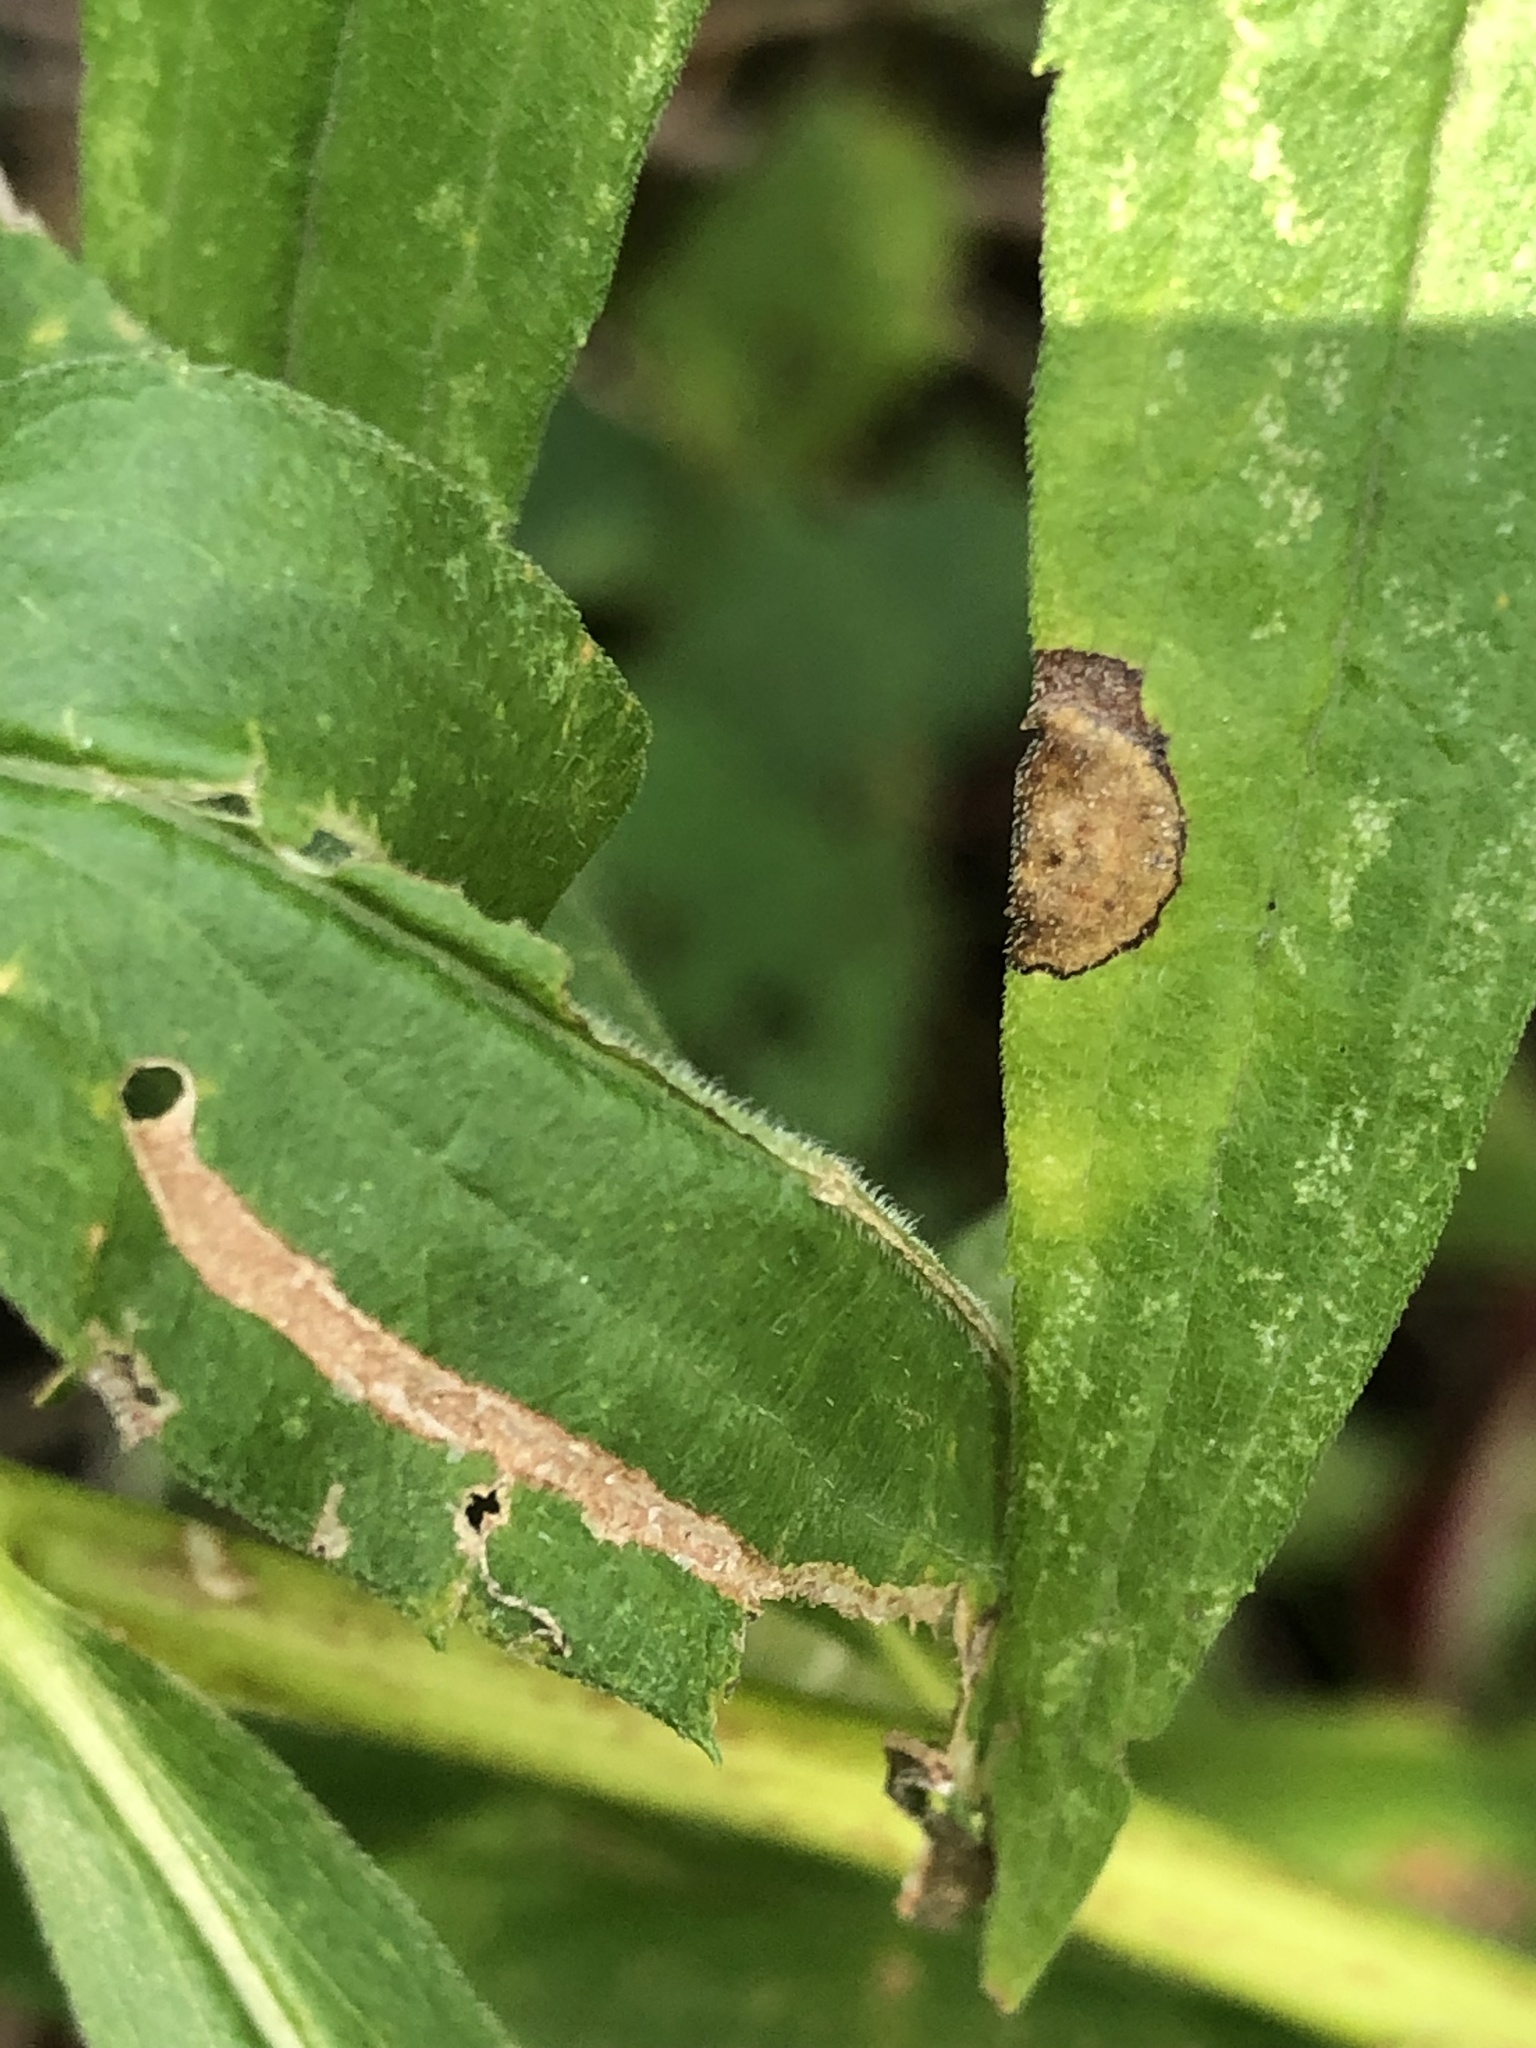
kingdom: Animalia
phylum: Arthropoda
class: Insecta
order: Diptera
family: Cecidomyiidae
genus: Asteromyia
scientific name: Asteromyia carbonifera
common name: Carbonifera goldenrod gall midge
